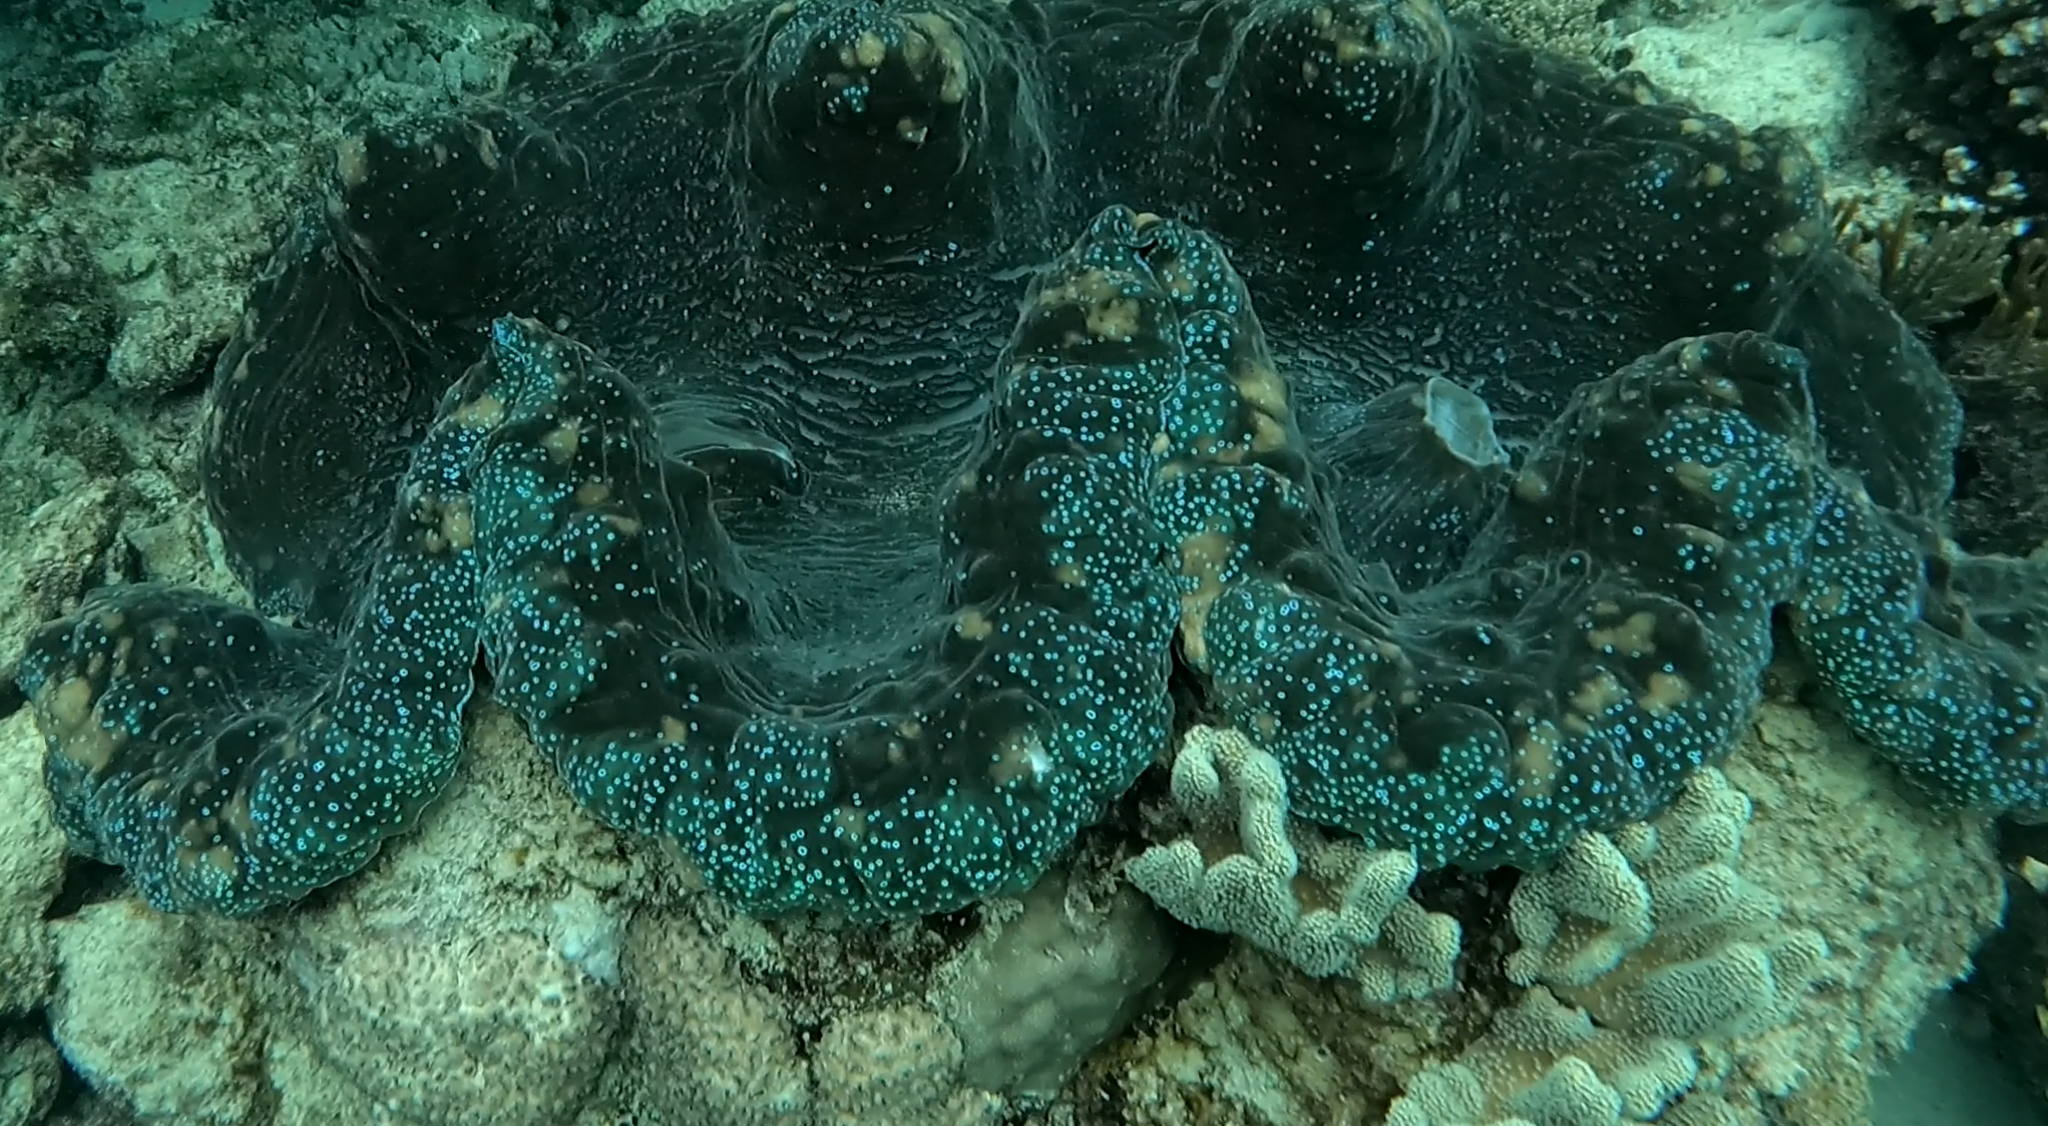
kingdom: Animalia
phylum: Mollusca
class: Bivalvia
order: Cardiida
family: Cardiidae
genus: Tridacna
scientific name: Tridacna gigas
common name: Giant clam
